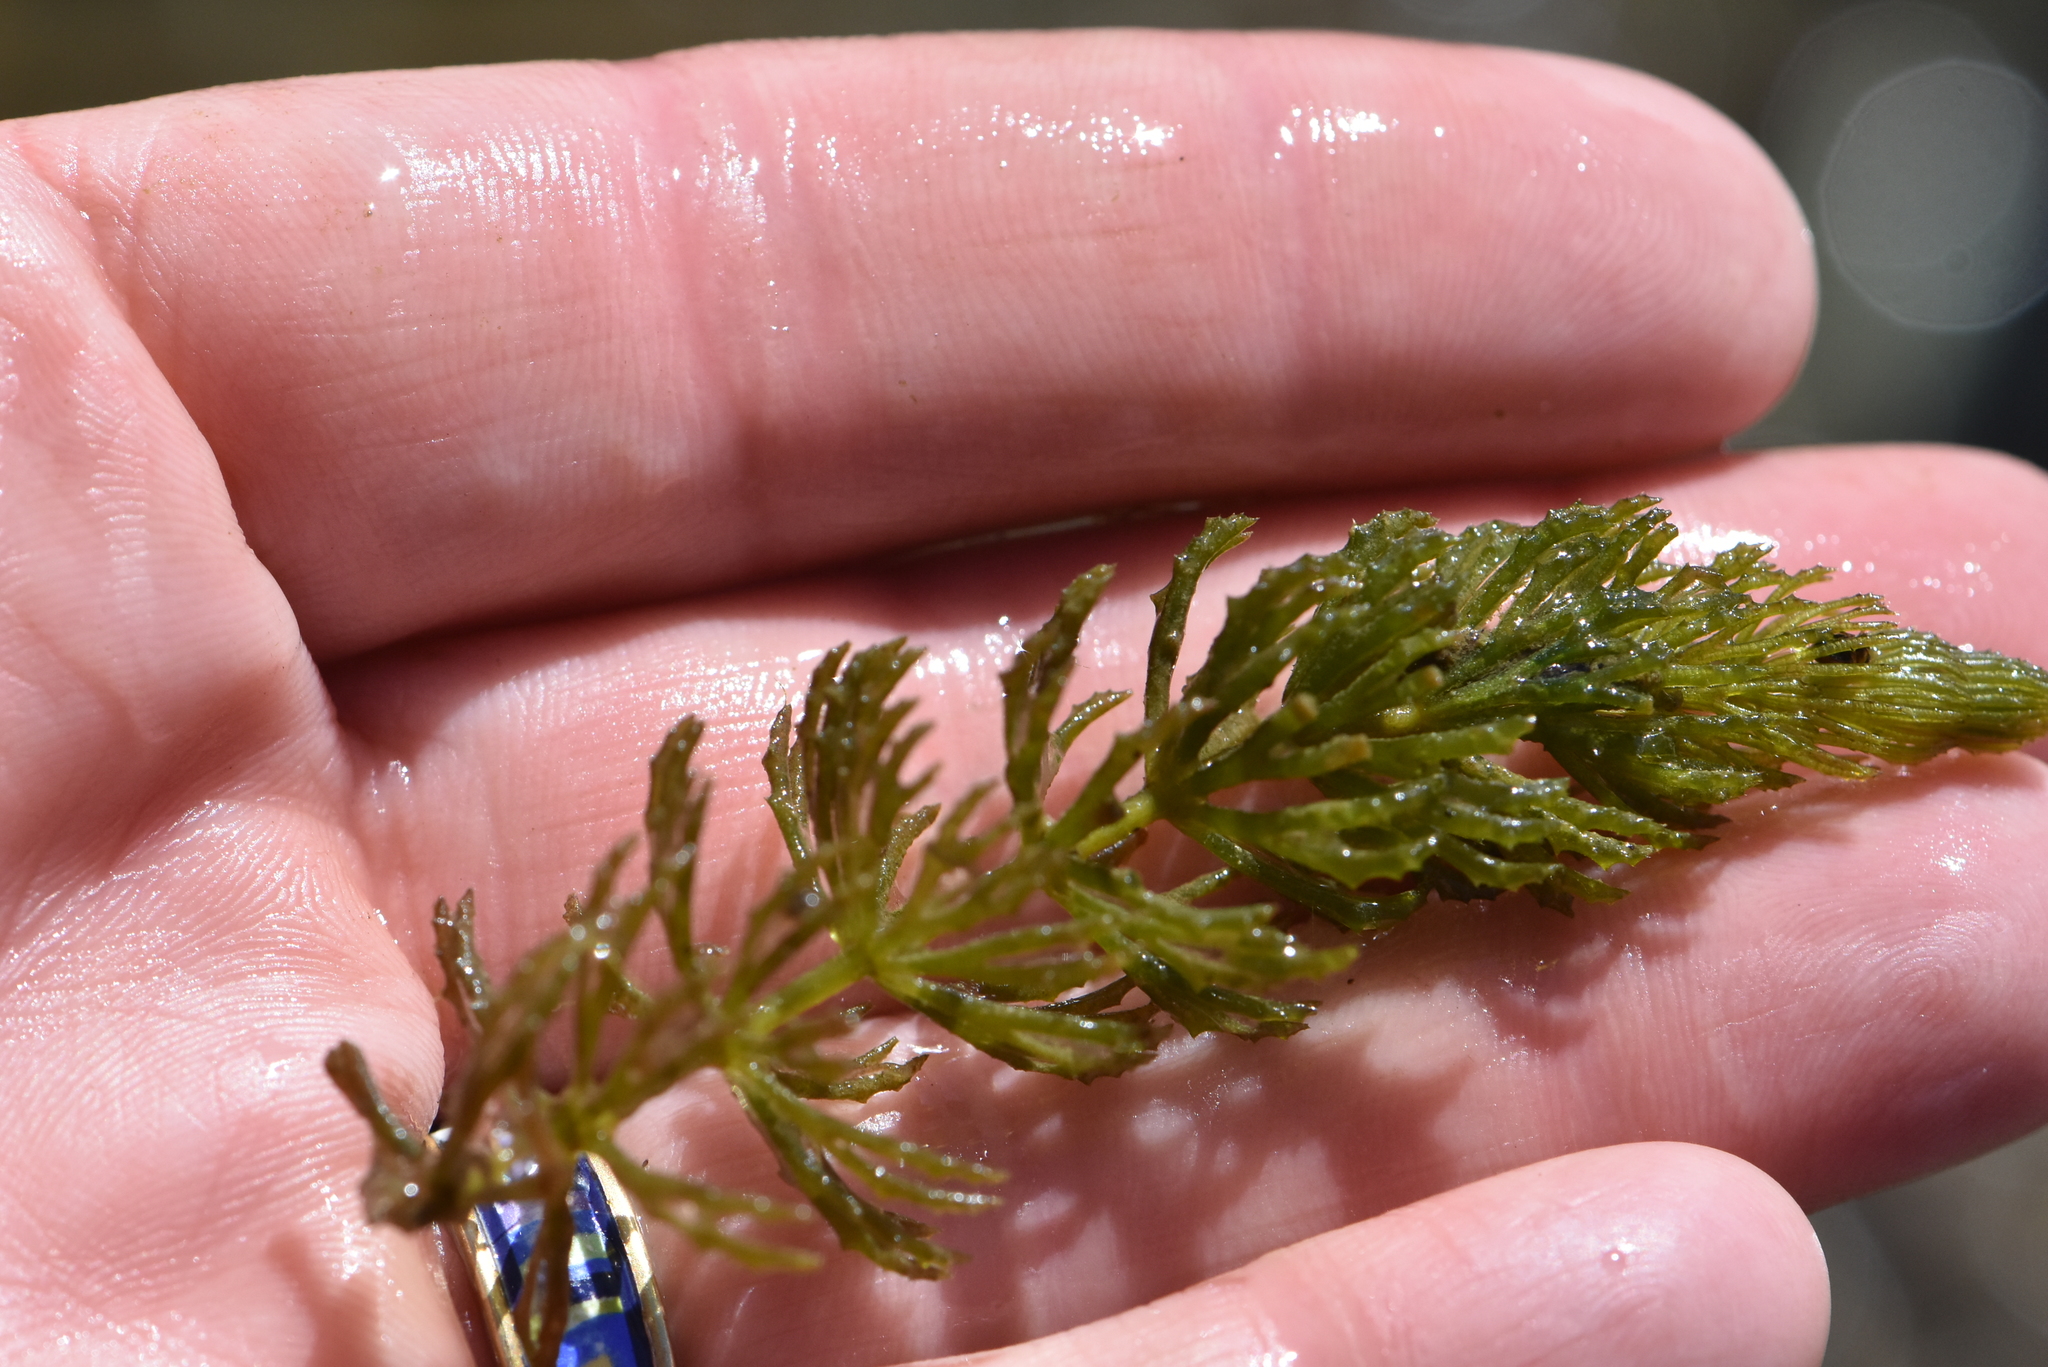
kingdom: Plantae
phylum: Tracheophyta
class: Magnoliopsida
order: Ceratophyllales
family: Ceratophyllaceae
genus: Ceratophyllum
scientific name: Ceratophyllum demersum
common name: Rigid hornwort
